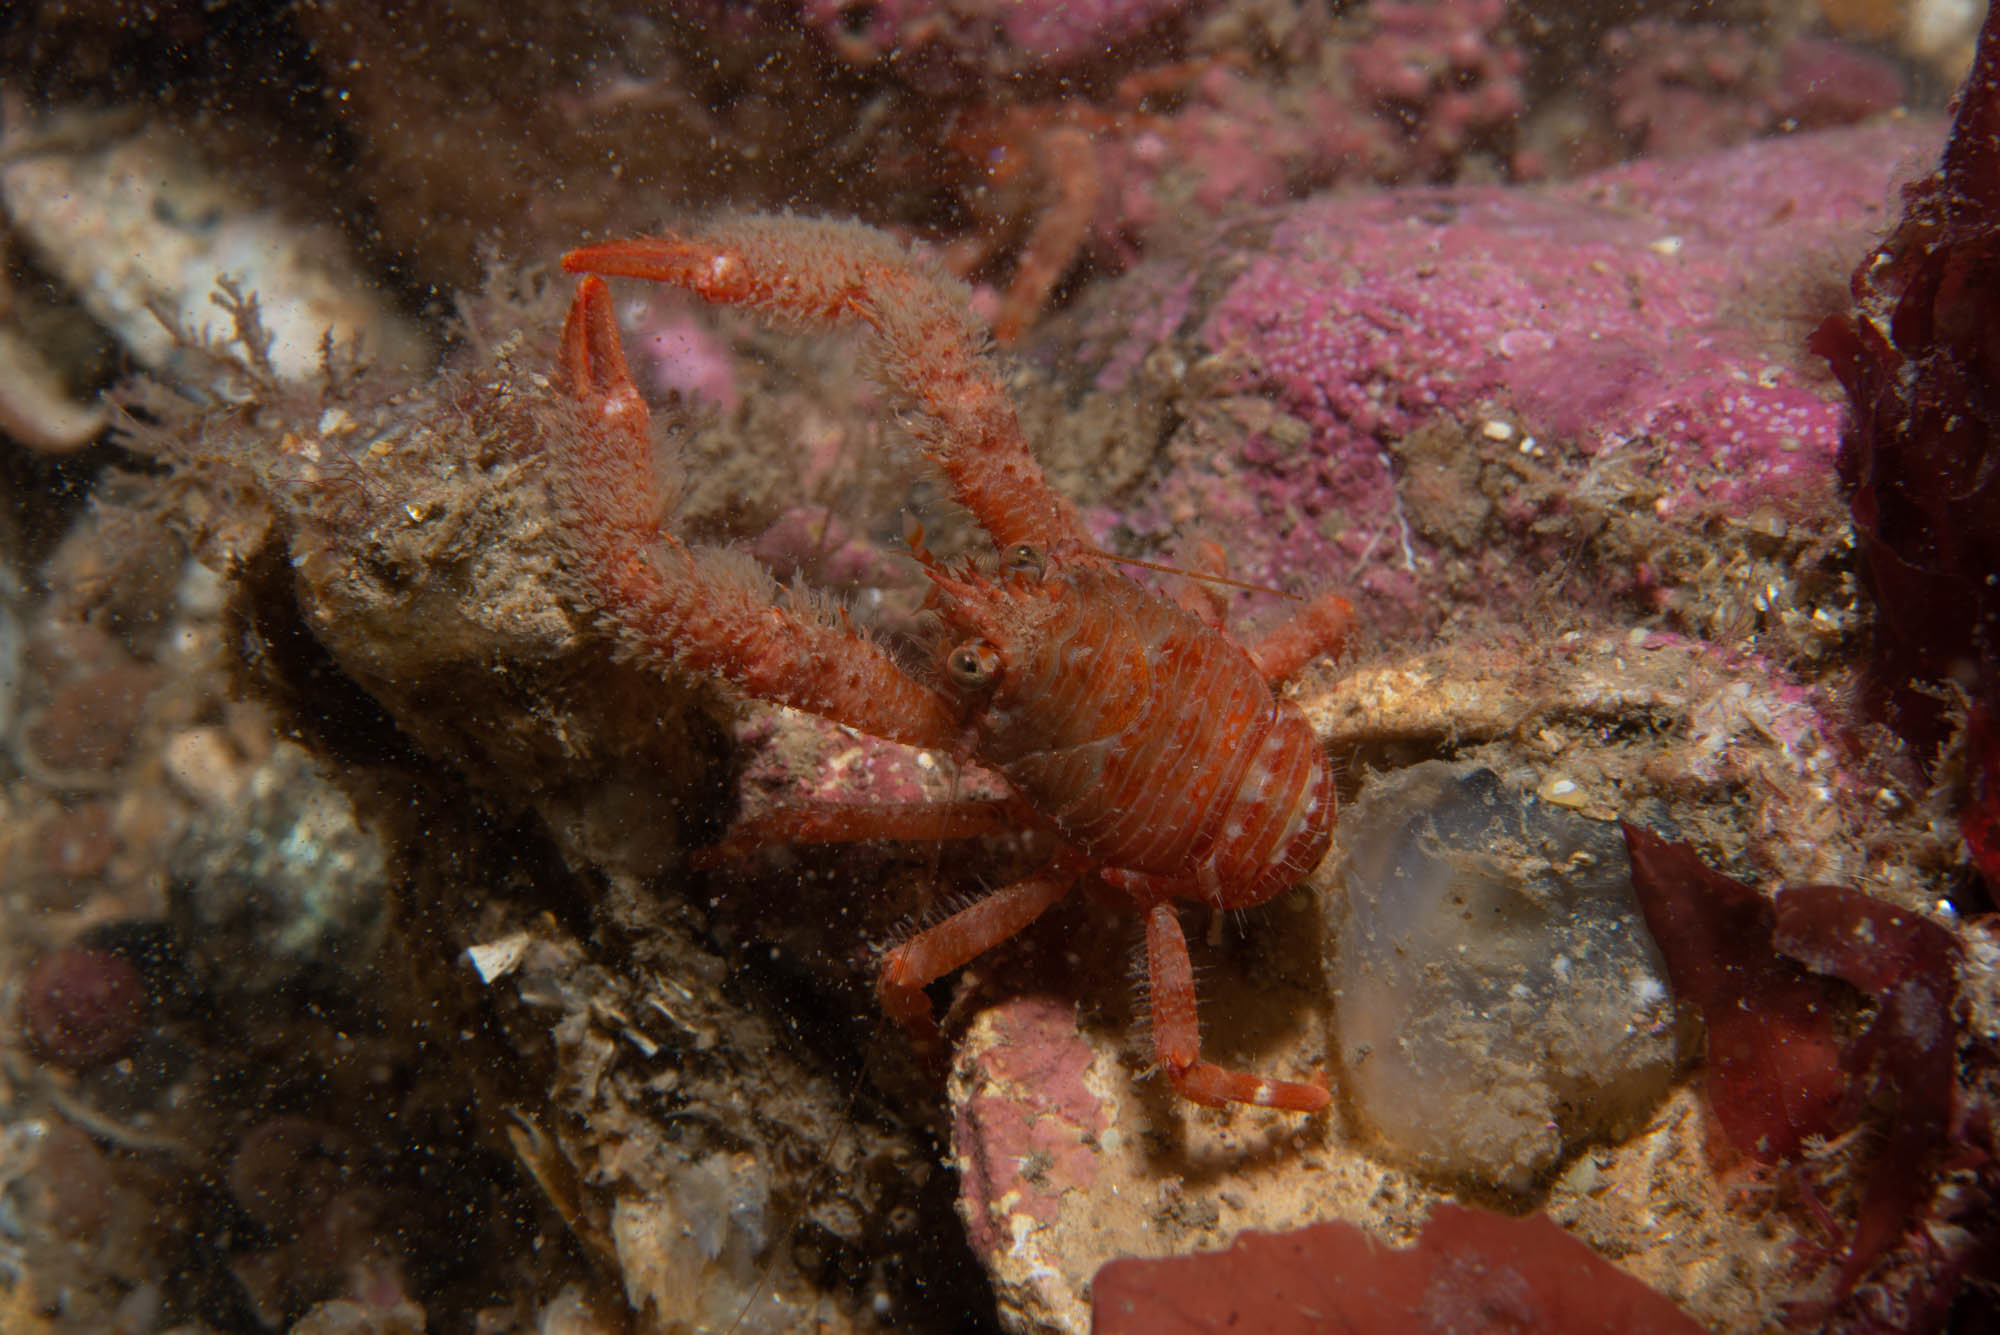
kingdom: Animalia
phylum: Arthropoda
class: Malacostraca
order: Decapoda
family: Galatheidae
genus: Galathea
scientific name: Galathea nexa
